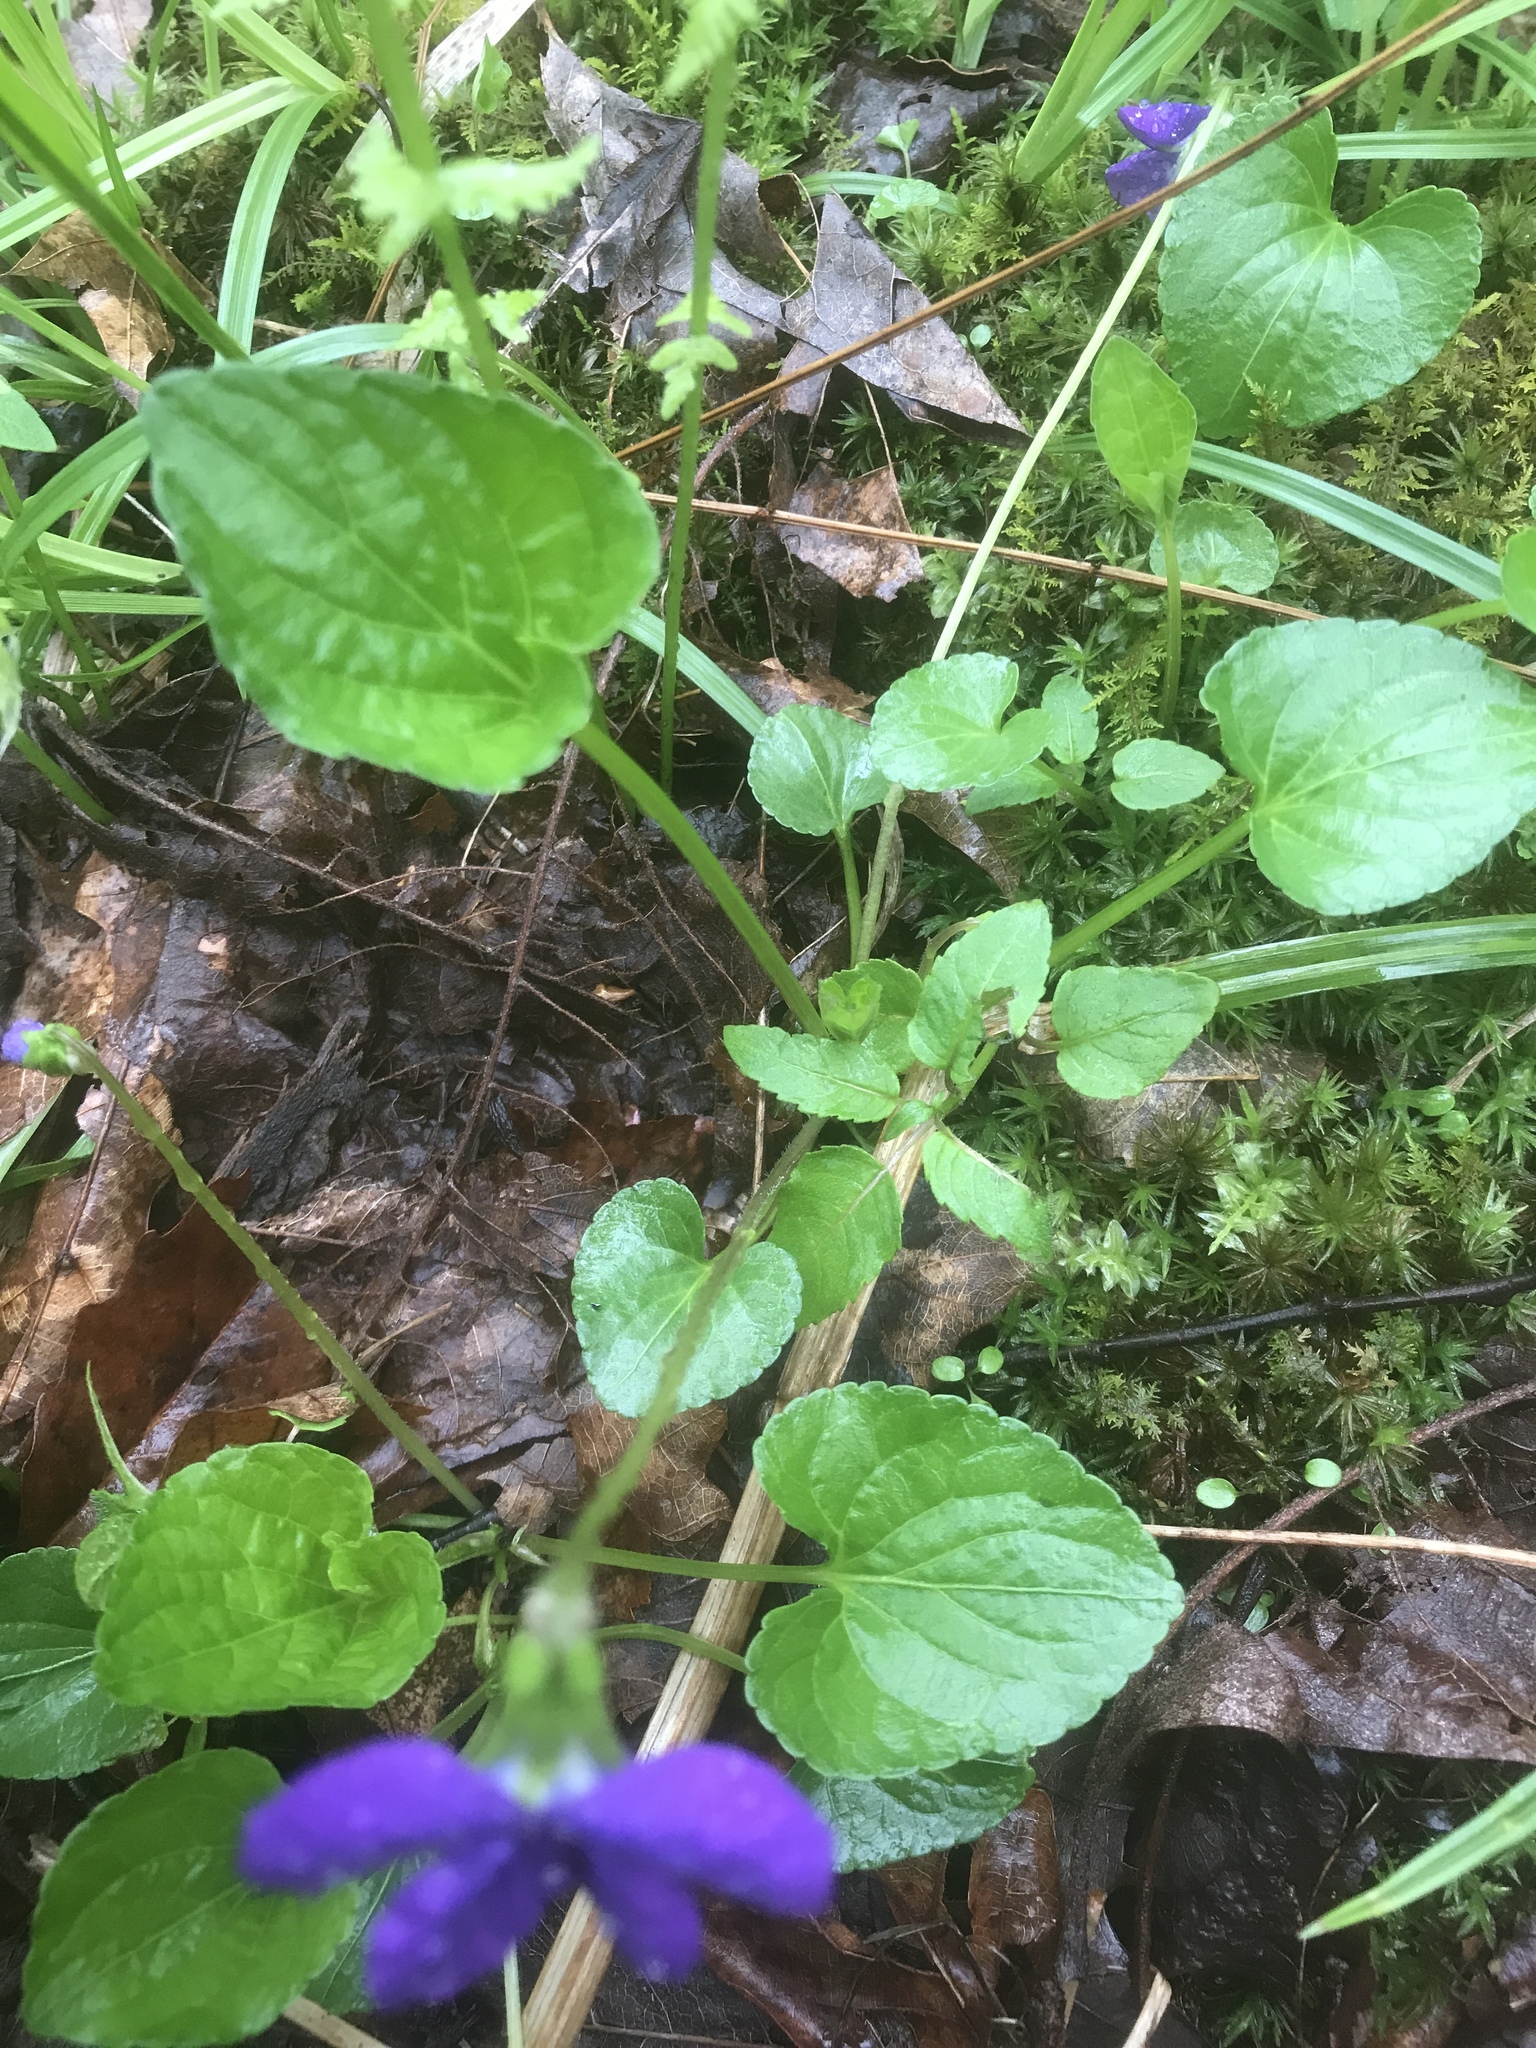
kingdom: Plantae
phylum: Tracheophyta
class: Magnoliopsida
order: Malpighiales
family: Violaceae
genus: Viola
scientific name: Viola cucullata
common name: Marsh blue violet
